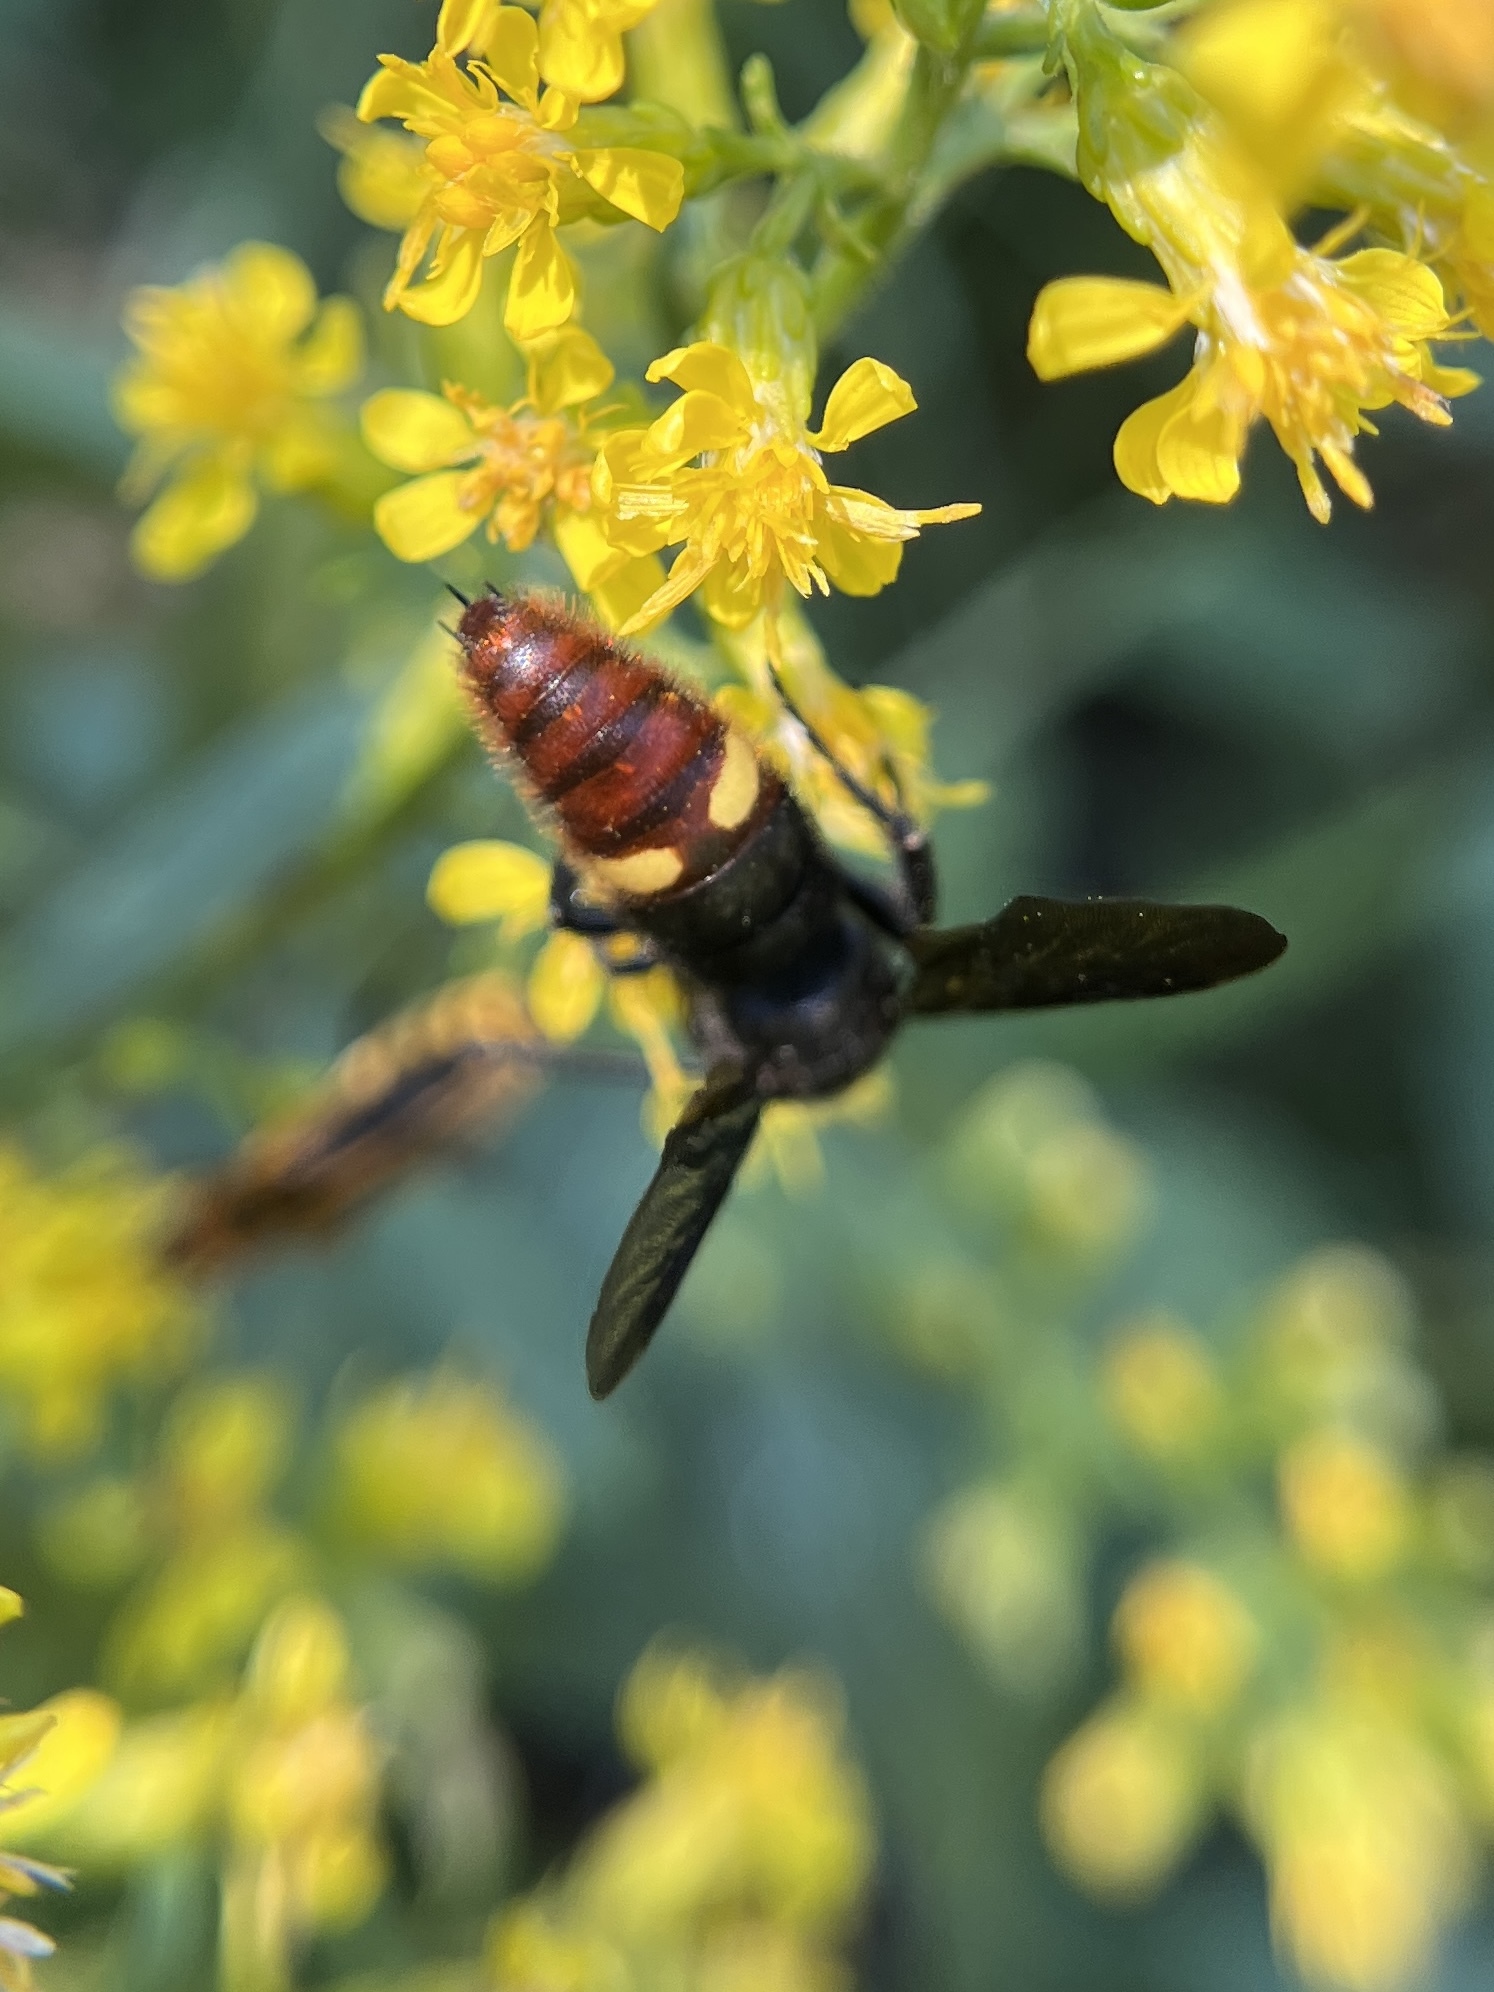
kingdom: Animalia
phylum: Arthropoda
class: Insecta
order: Hymenoptera
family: Scoliidae
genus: Scolia
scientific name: Scolia dubia
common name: Blue-winged scoliid wasp
